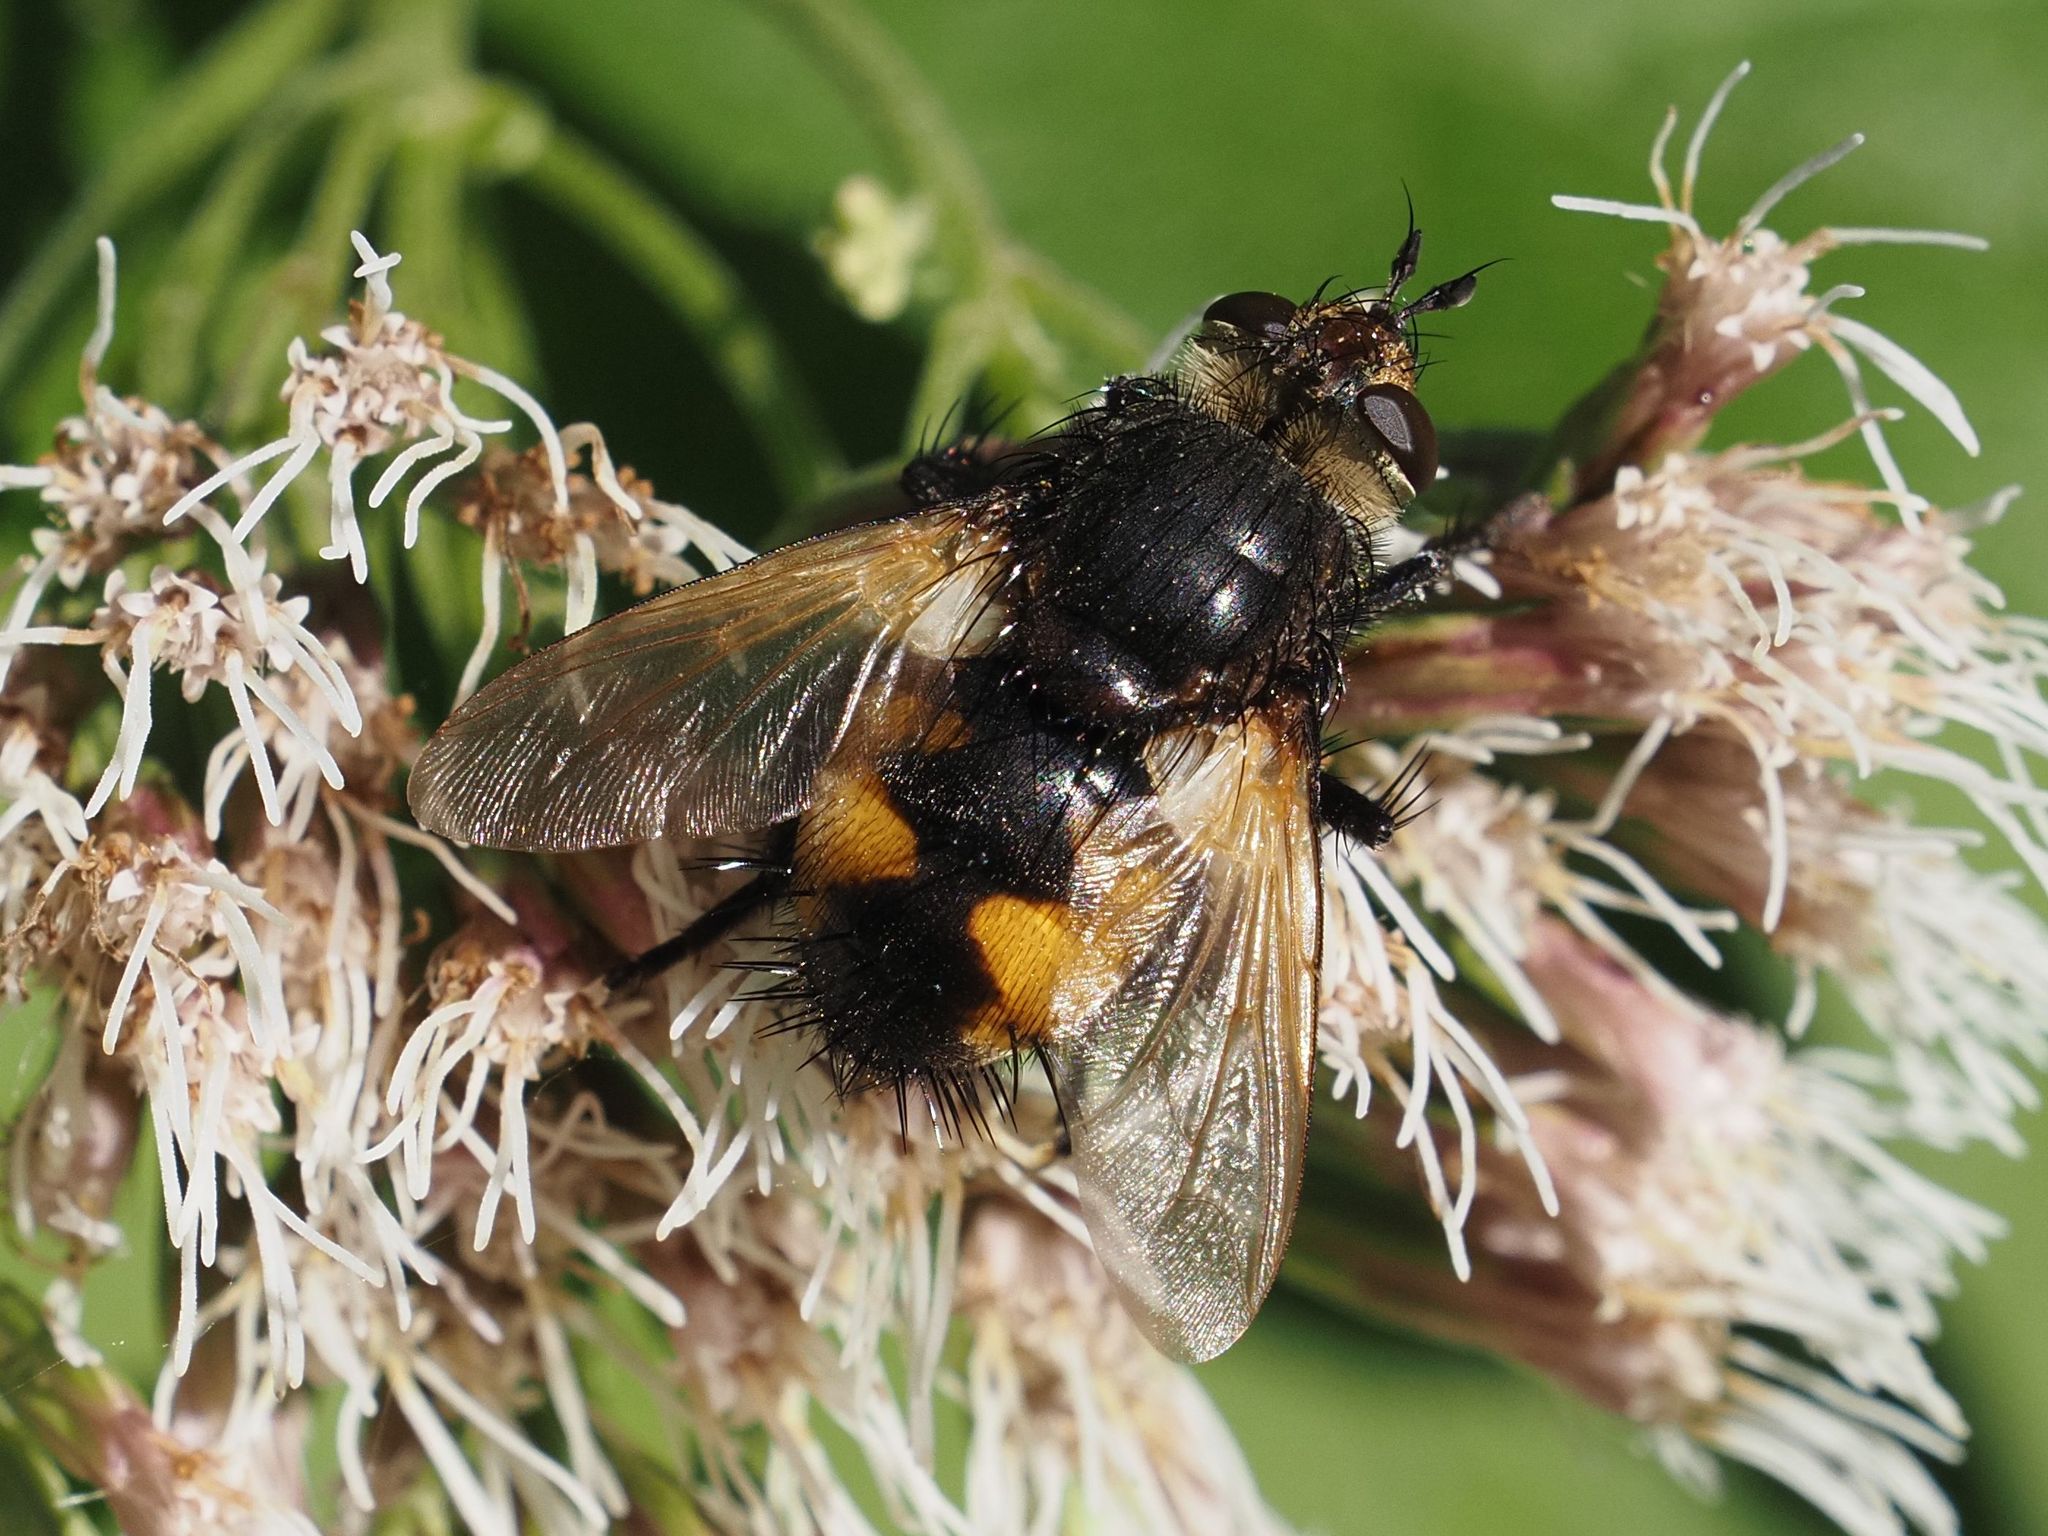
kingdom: Animalia
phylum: Arthropoda
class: Insecta
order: Diptera
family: Tachinidae
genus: Nowickia
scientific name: Nowickia ferox
